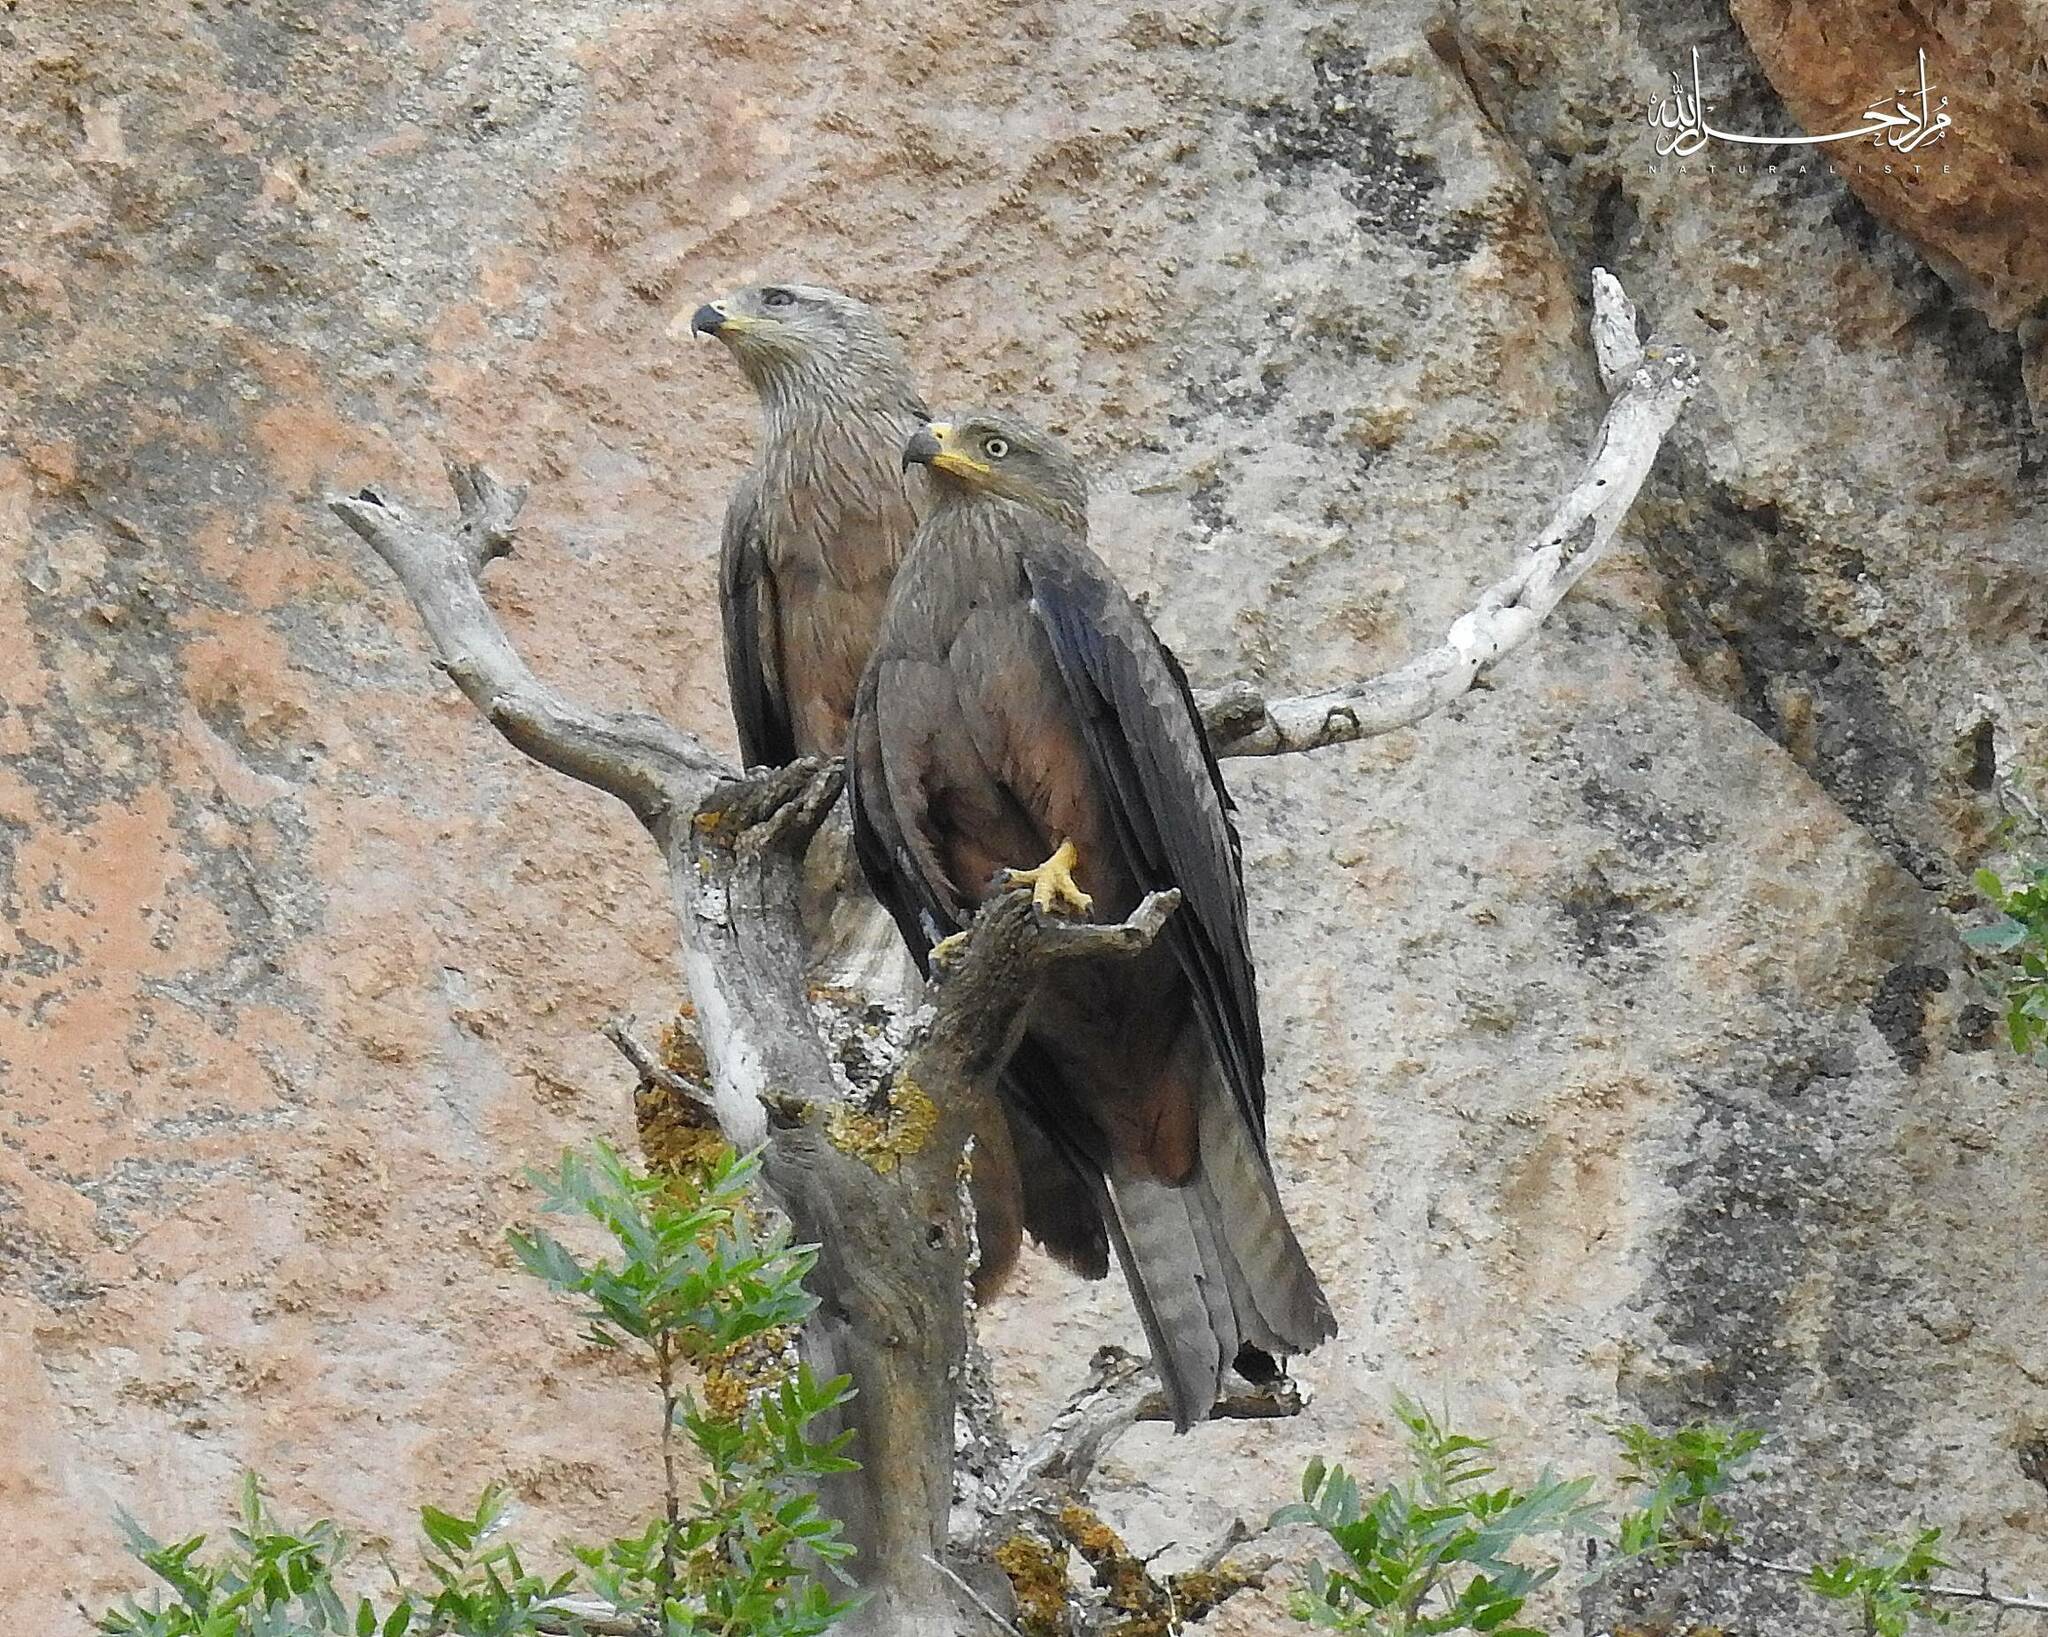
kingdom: Animalia
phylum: Chordata
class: Aves
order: Accipitriformes
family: Accipitridae
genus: Milvus
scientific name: Milvus migrans
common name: Black kite
